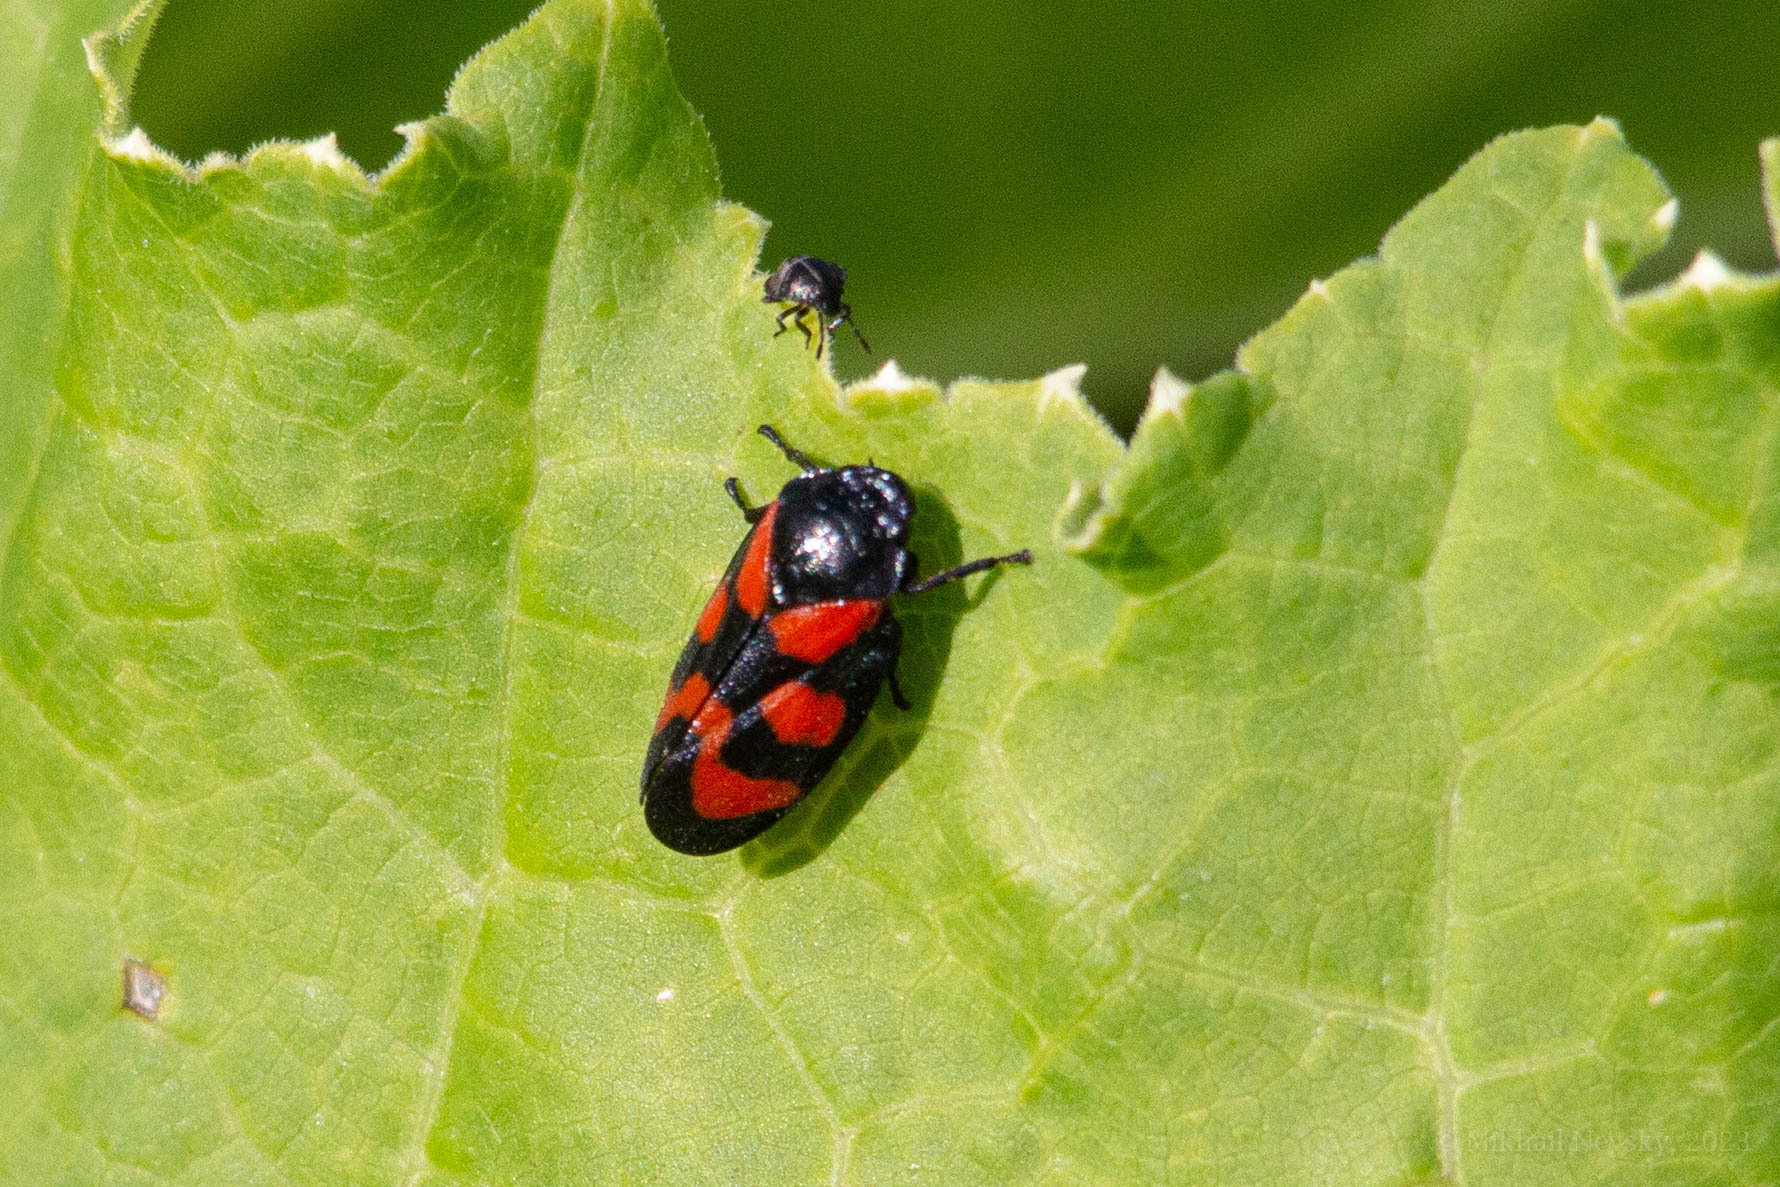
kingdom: Animalia
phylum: Arthropoda
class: Insecta
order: Hemiptera
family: Cercopidae
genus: Cercopis
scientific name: Cercopis vulnerata
